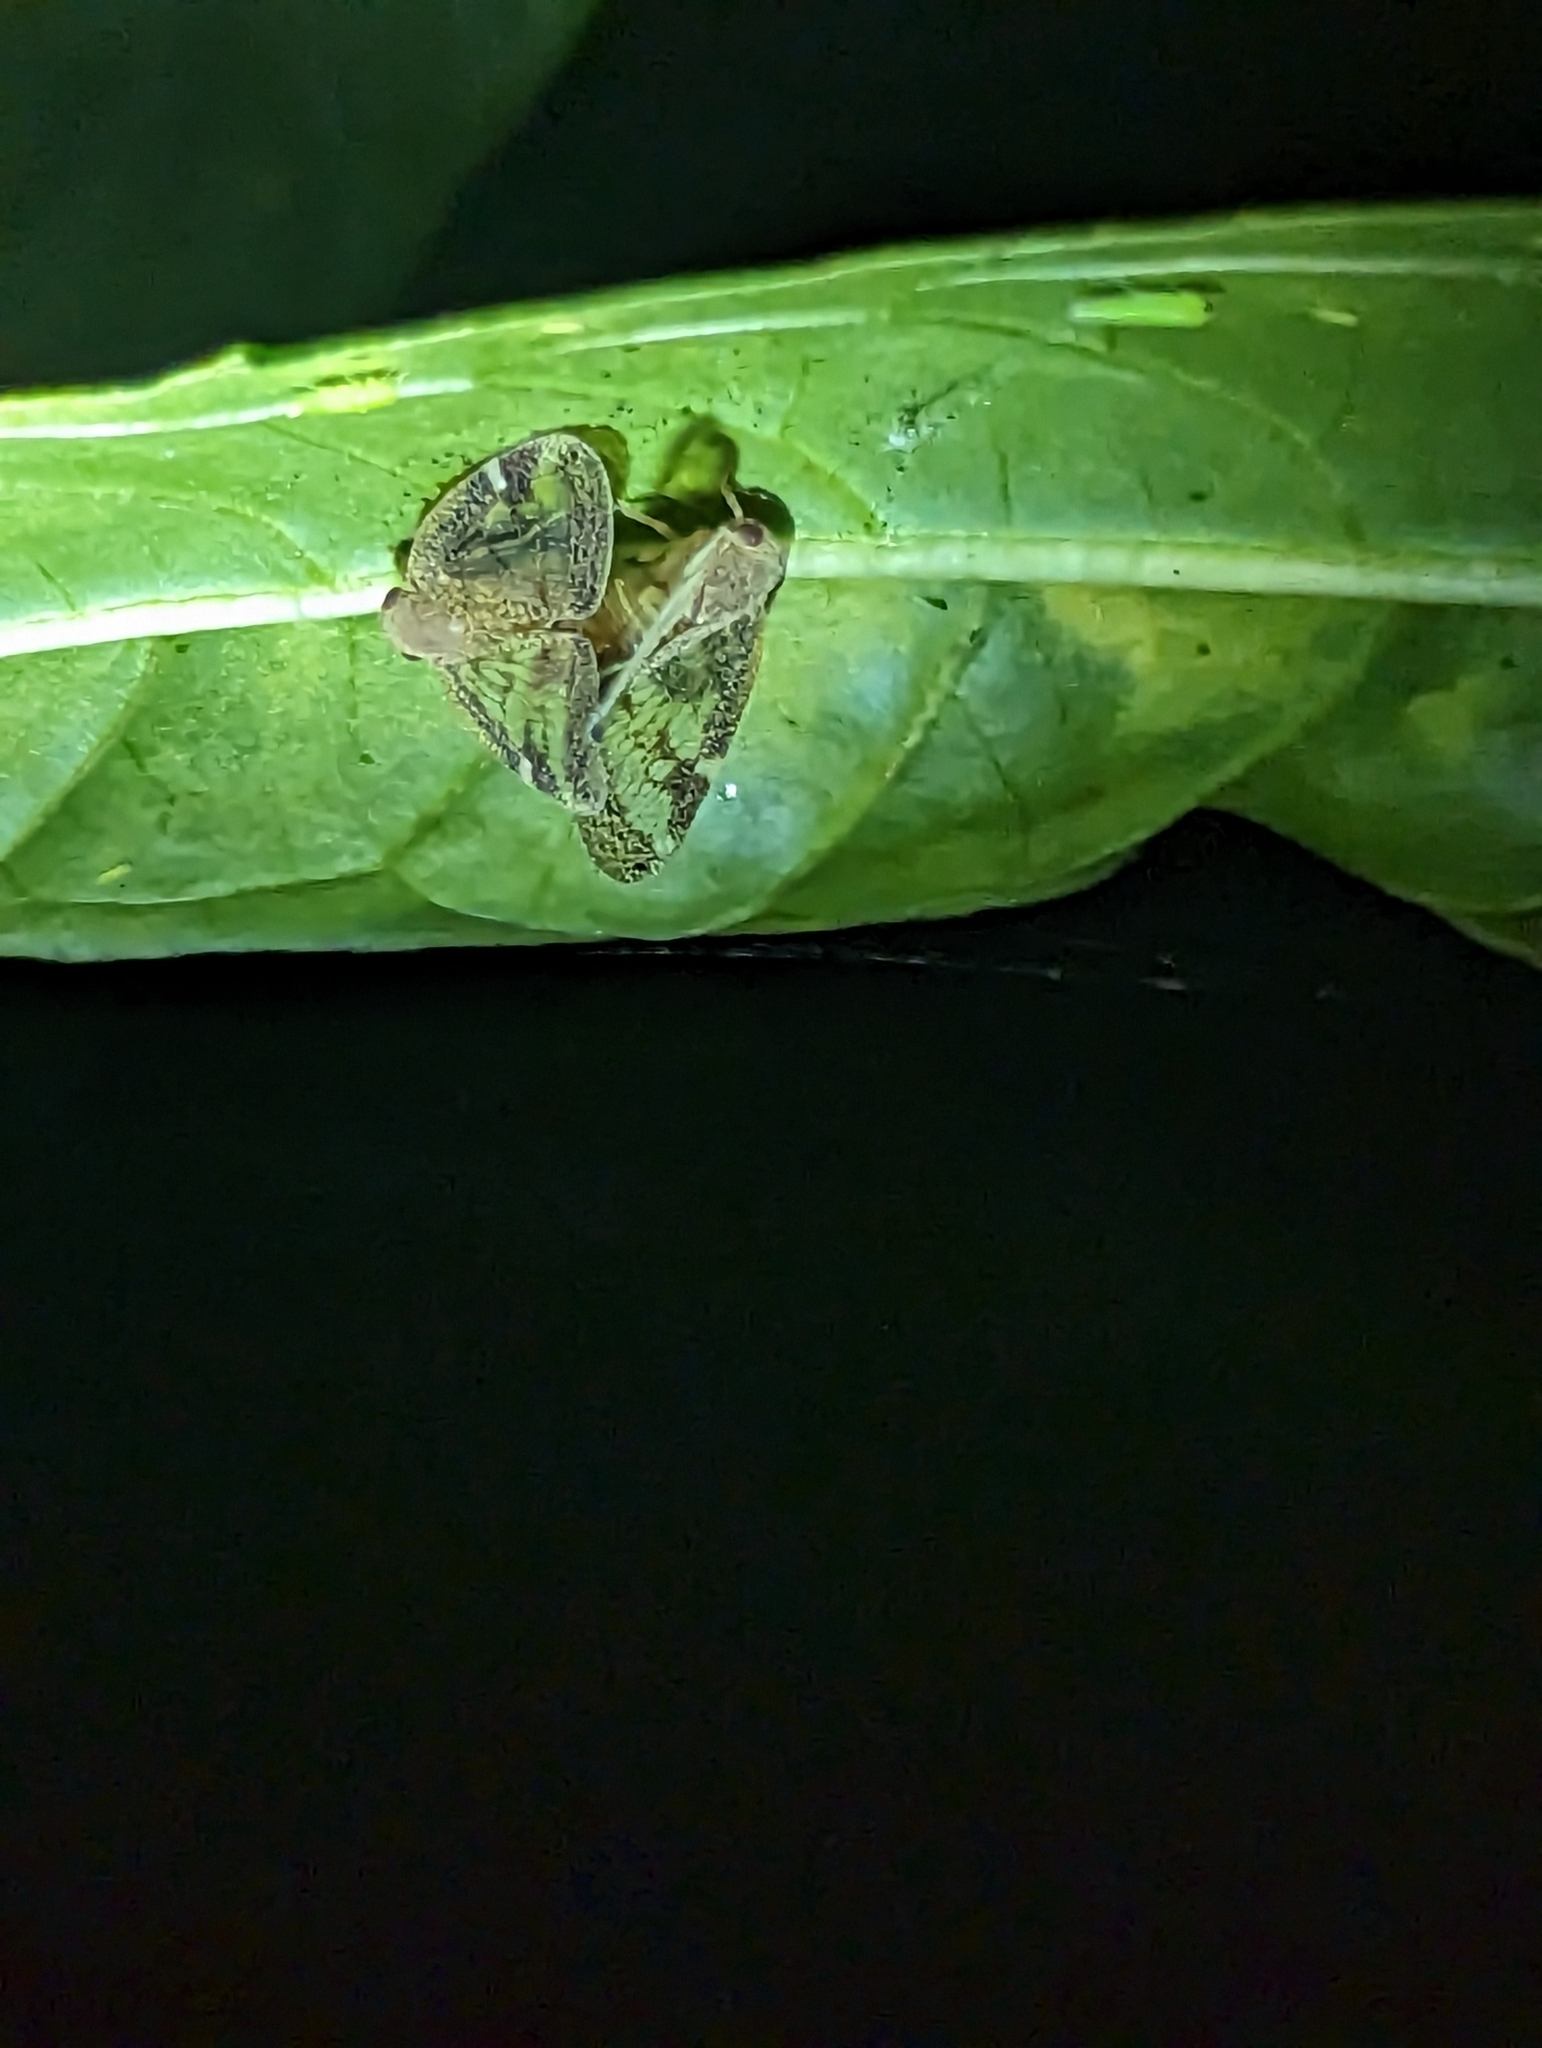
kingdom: Animalia
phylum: Arthropoda
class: Insecta
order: Hemiptera
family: Ricaniidae
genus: Scolypopa
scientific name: Scolypopa australis
